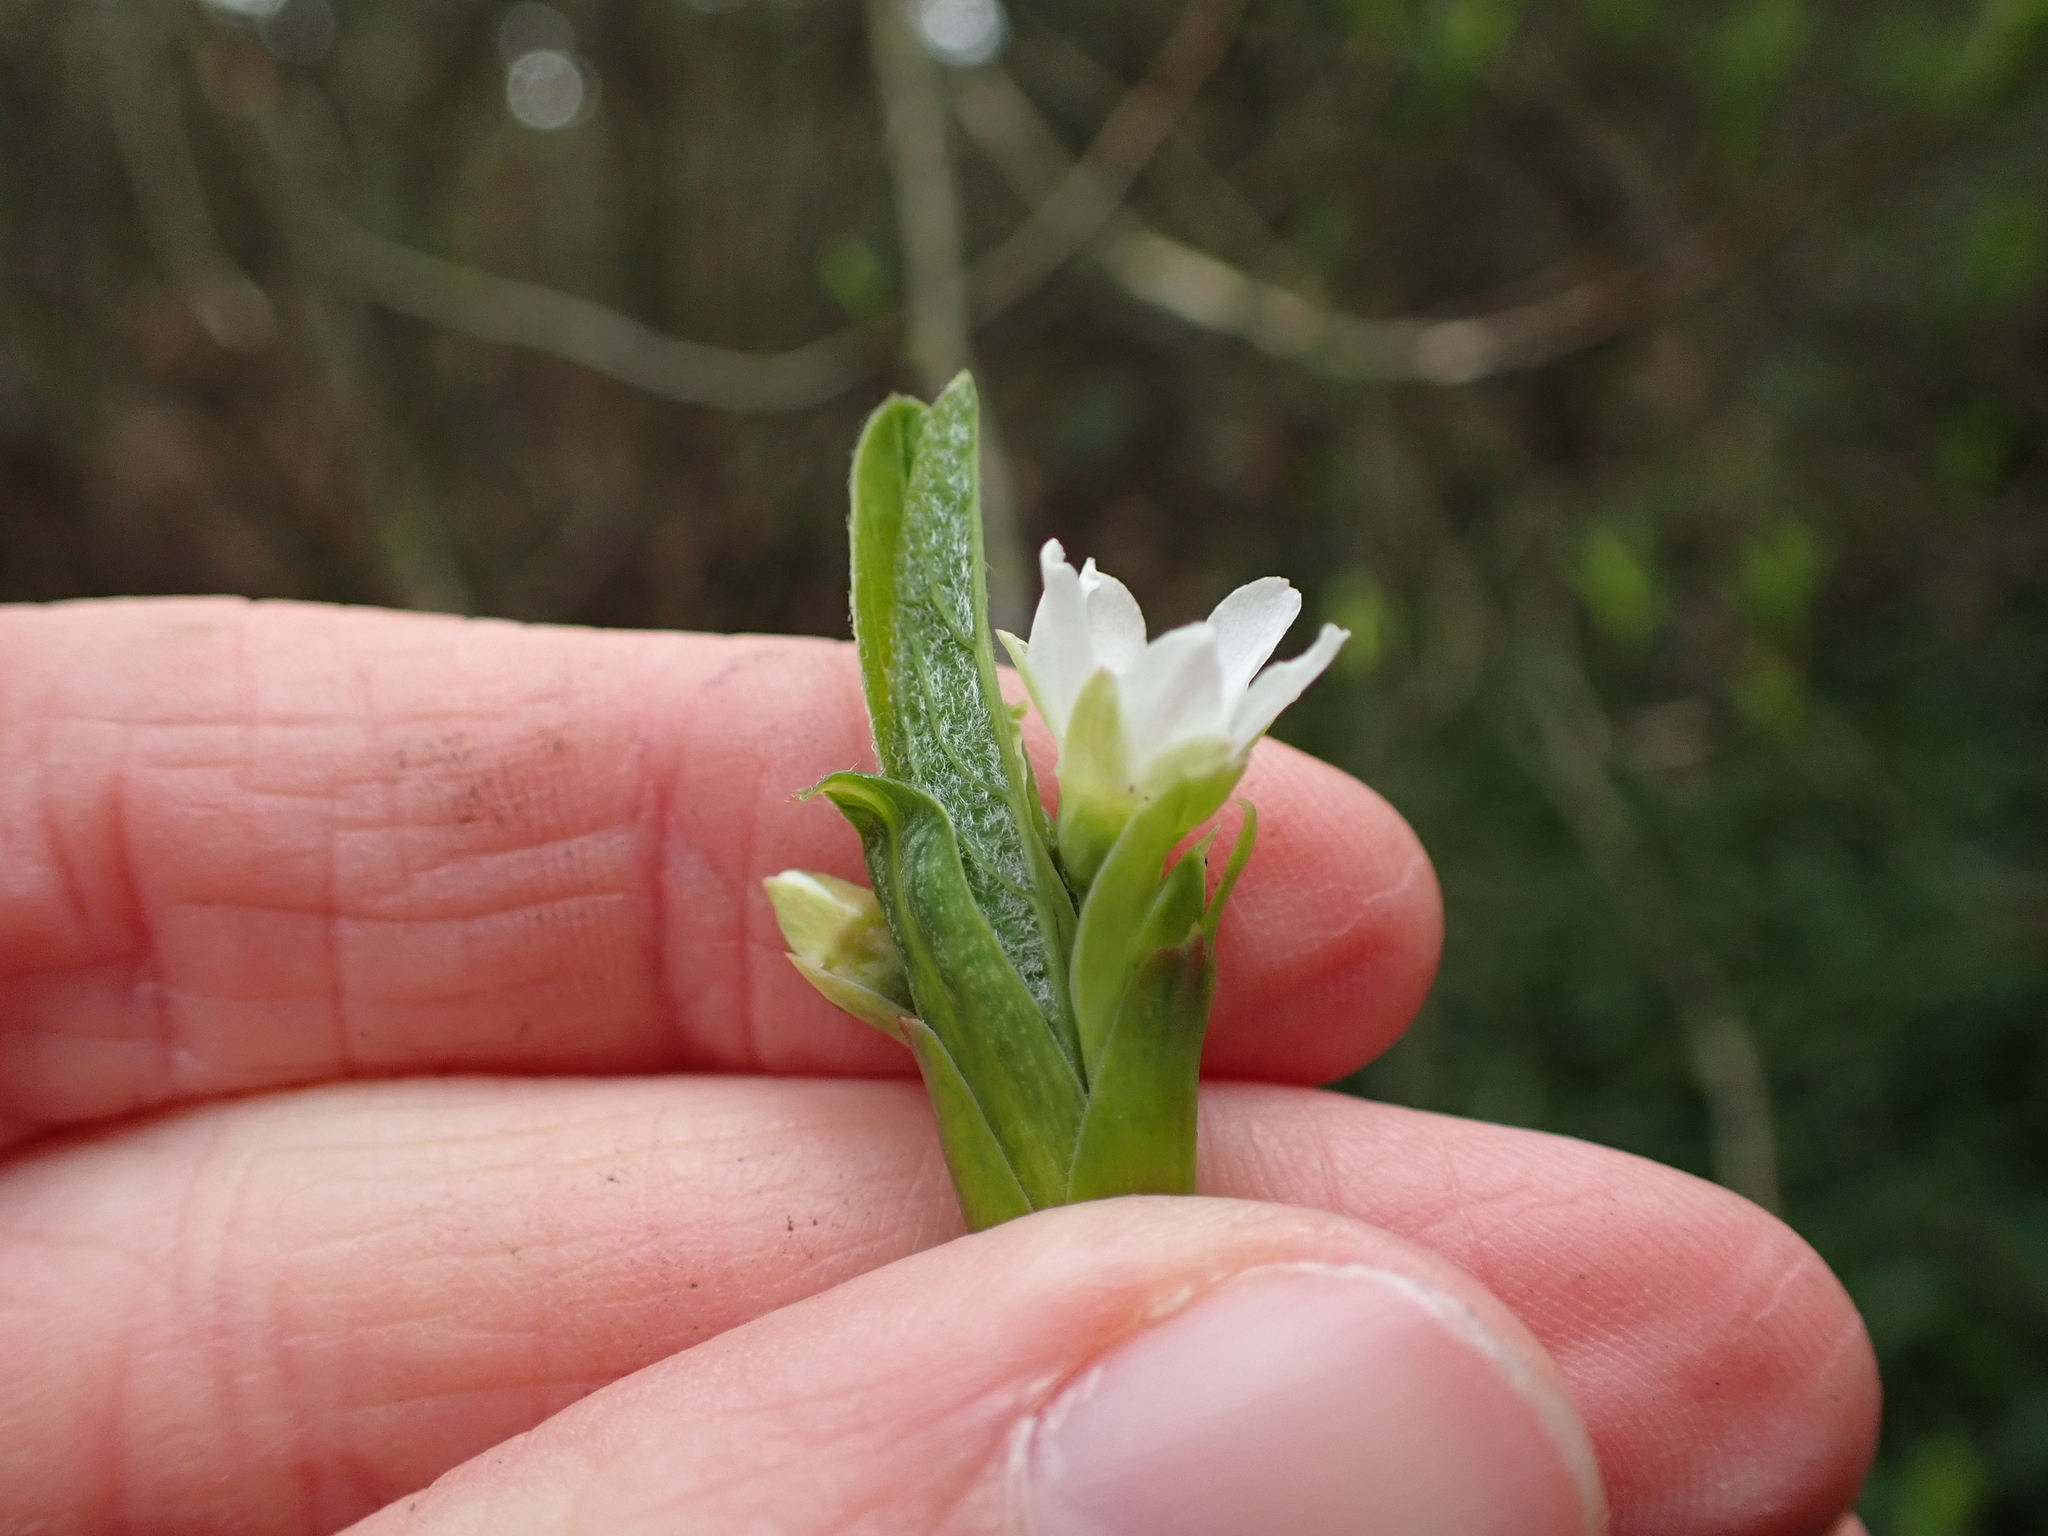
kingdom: Plantae
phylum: Tracheophyta
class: Magnoliopsida
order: Rosales
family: Rosaceae
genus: Oemleria
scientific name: Oemleria cerasiformis
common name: Osoberry
